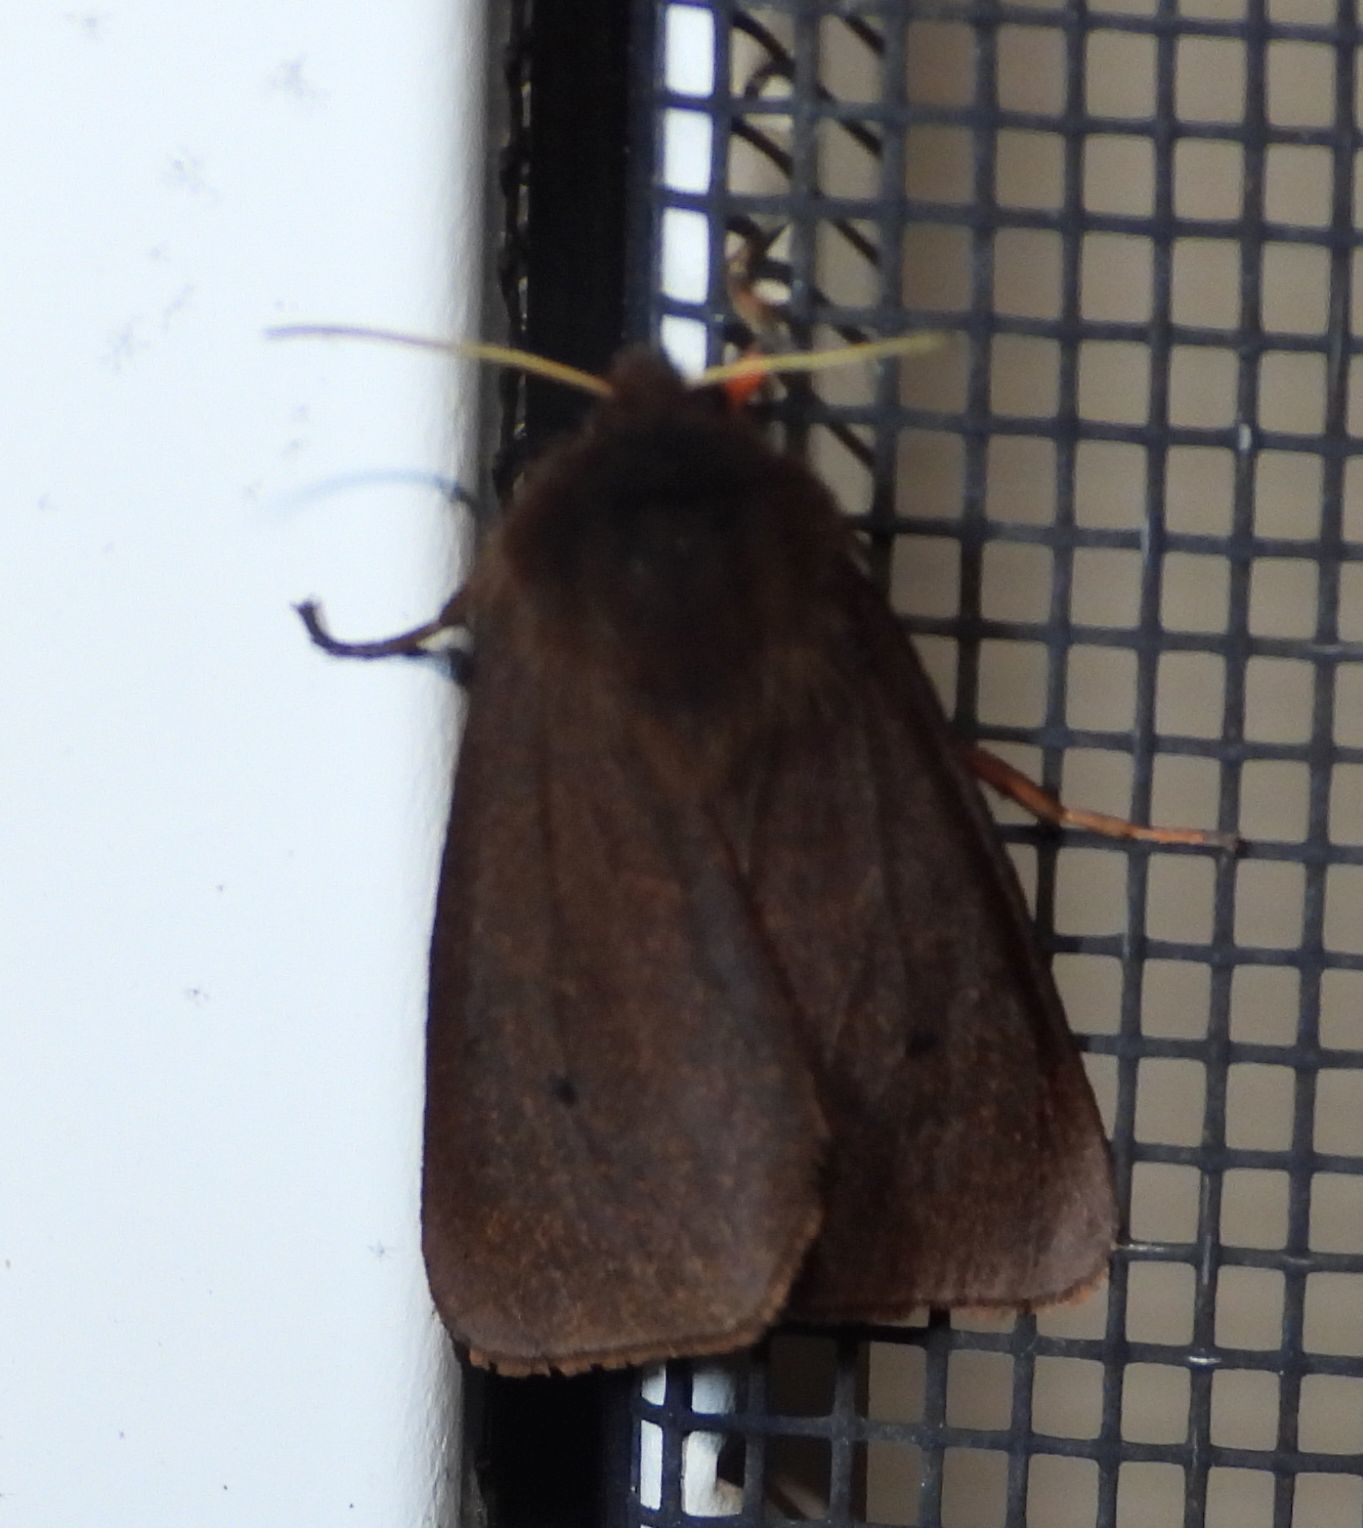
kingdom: Animalia
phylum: Arthropoda
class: Insecta
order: Lepidoptera
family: Erebidae
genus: Phragmatobia
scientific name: Phragmatobia fuliginosa
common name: Ruby tiger
